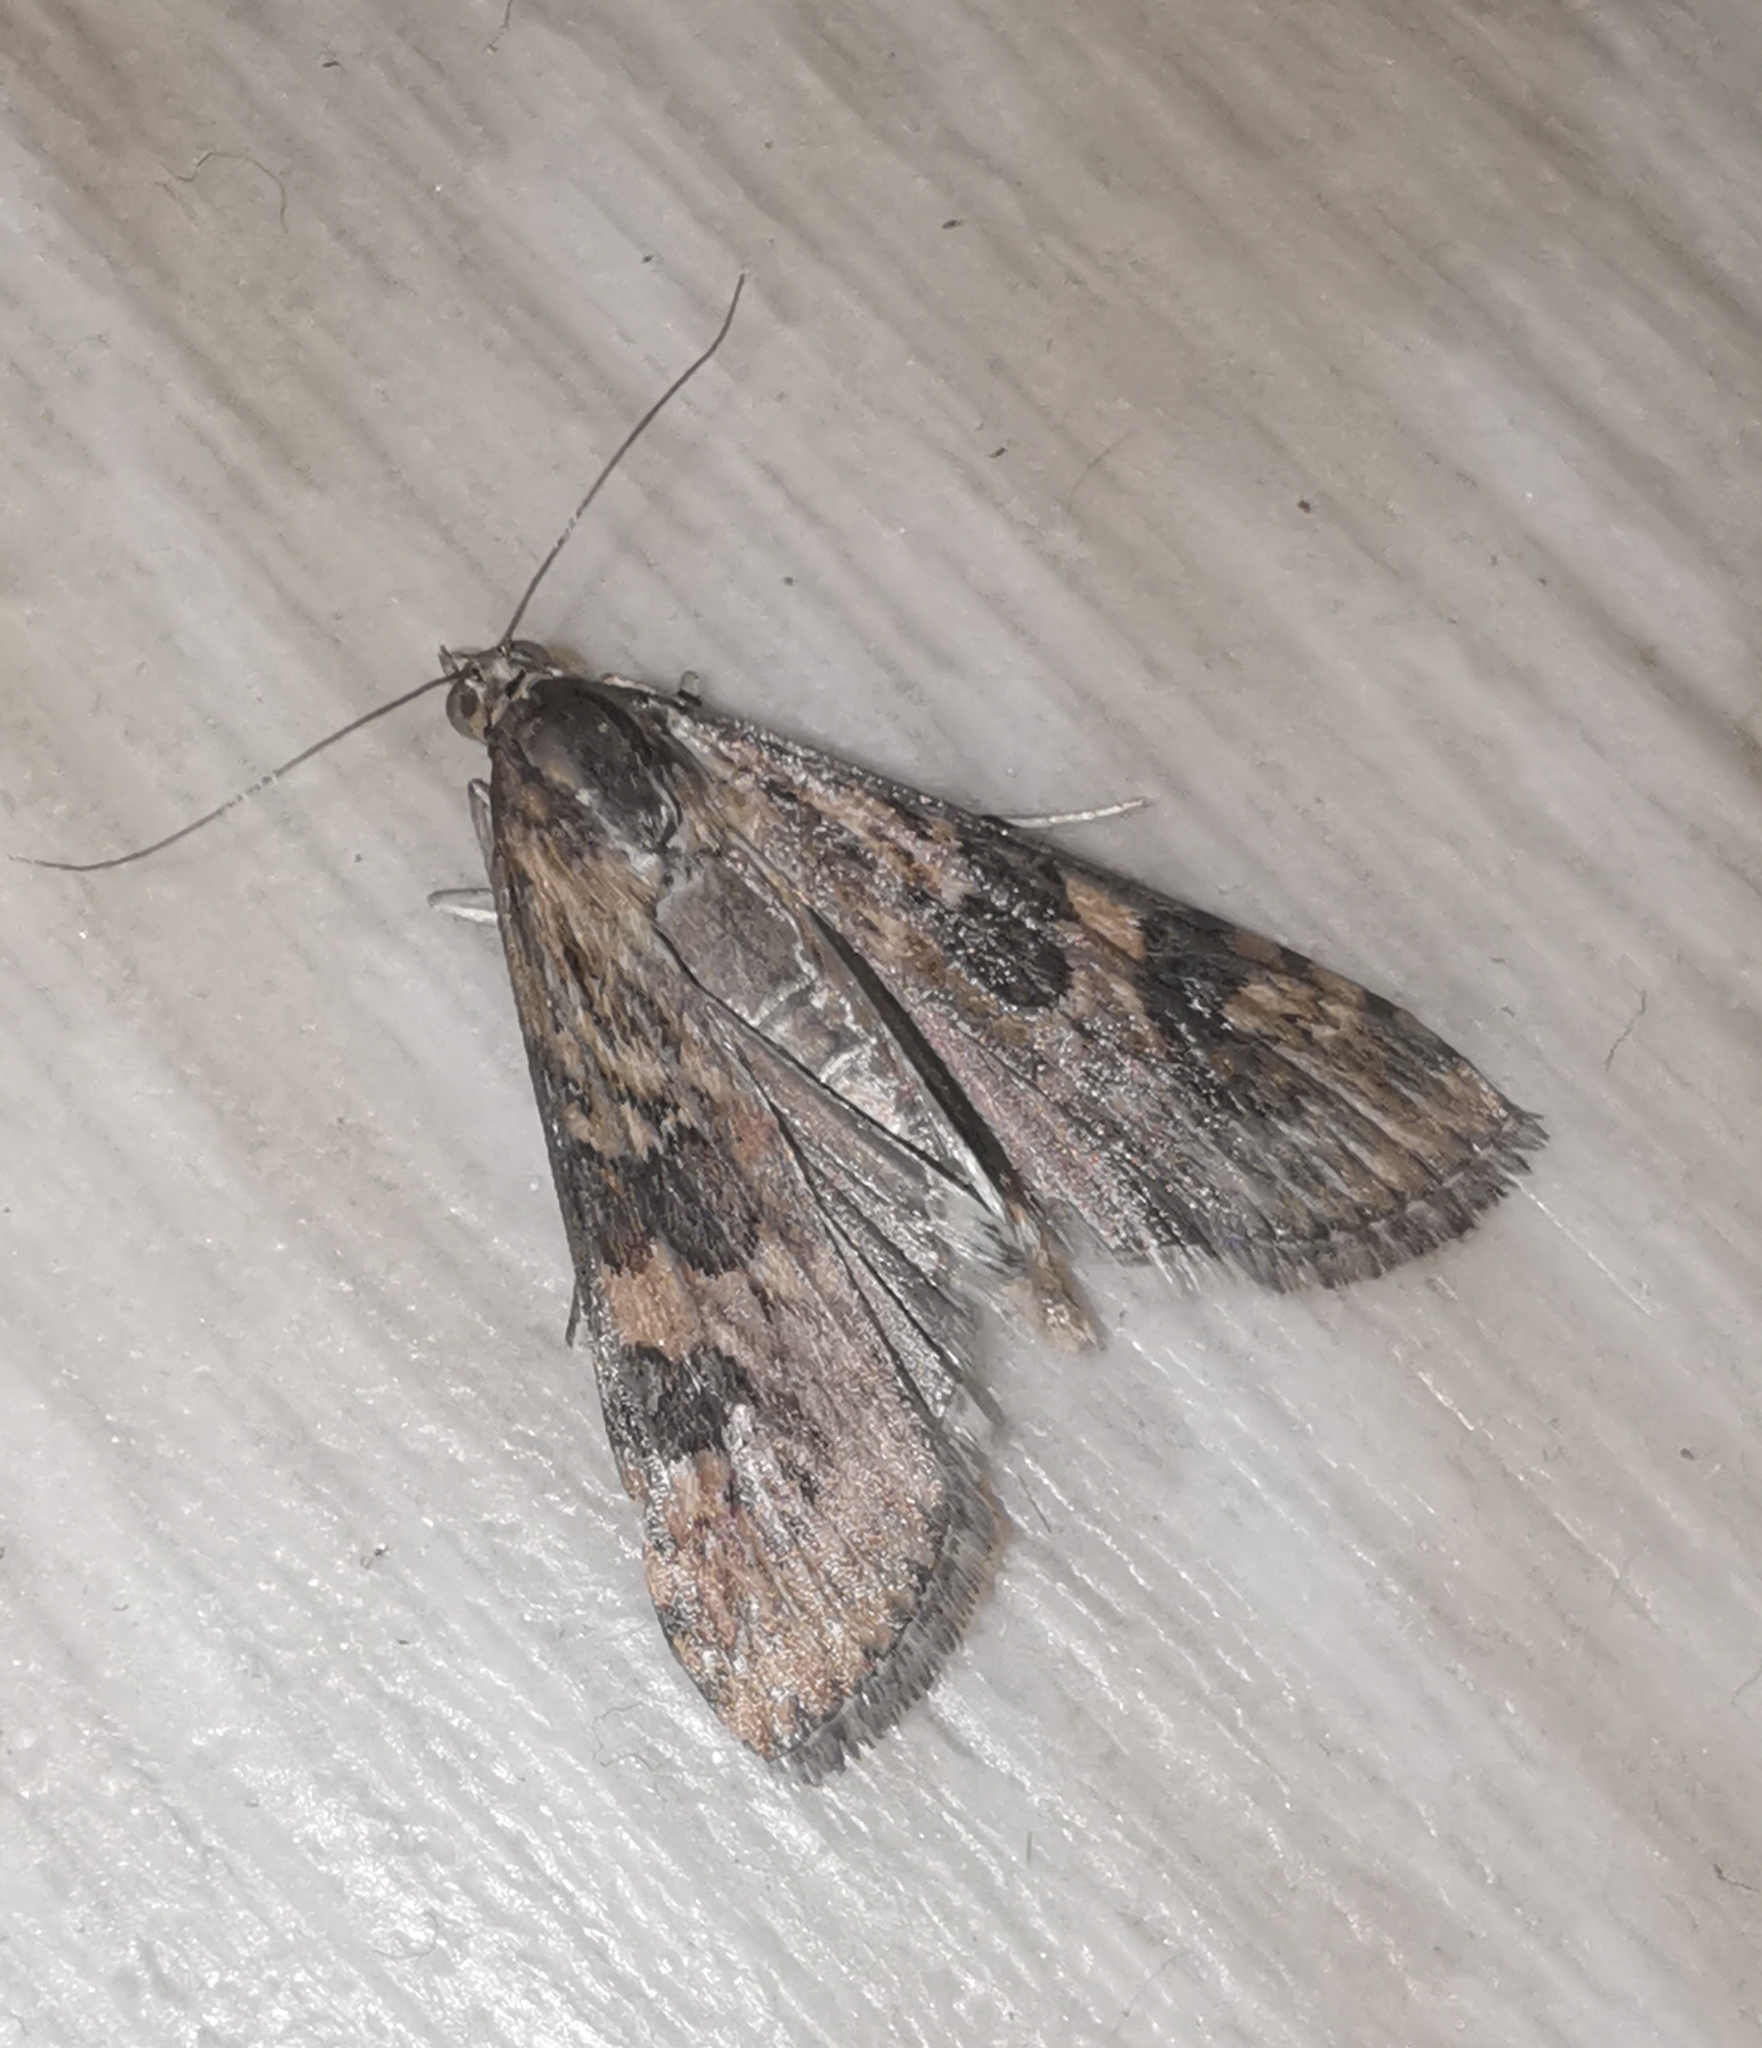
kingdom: Animalia
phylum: Arthropoda
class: Insecta
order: Lepidoptera
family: Crambidae
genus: Nomophila
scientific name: Nomophila noctuella
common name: Rush veneer
